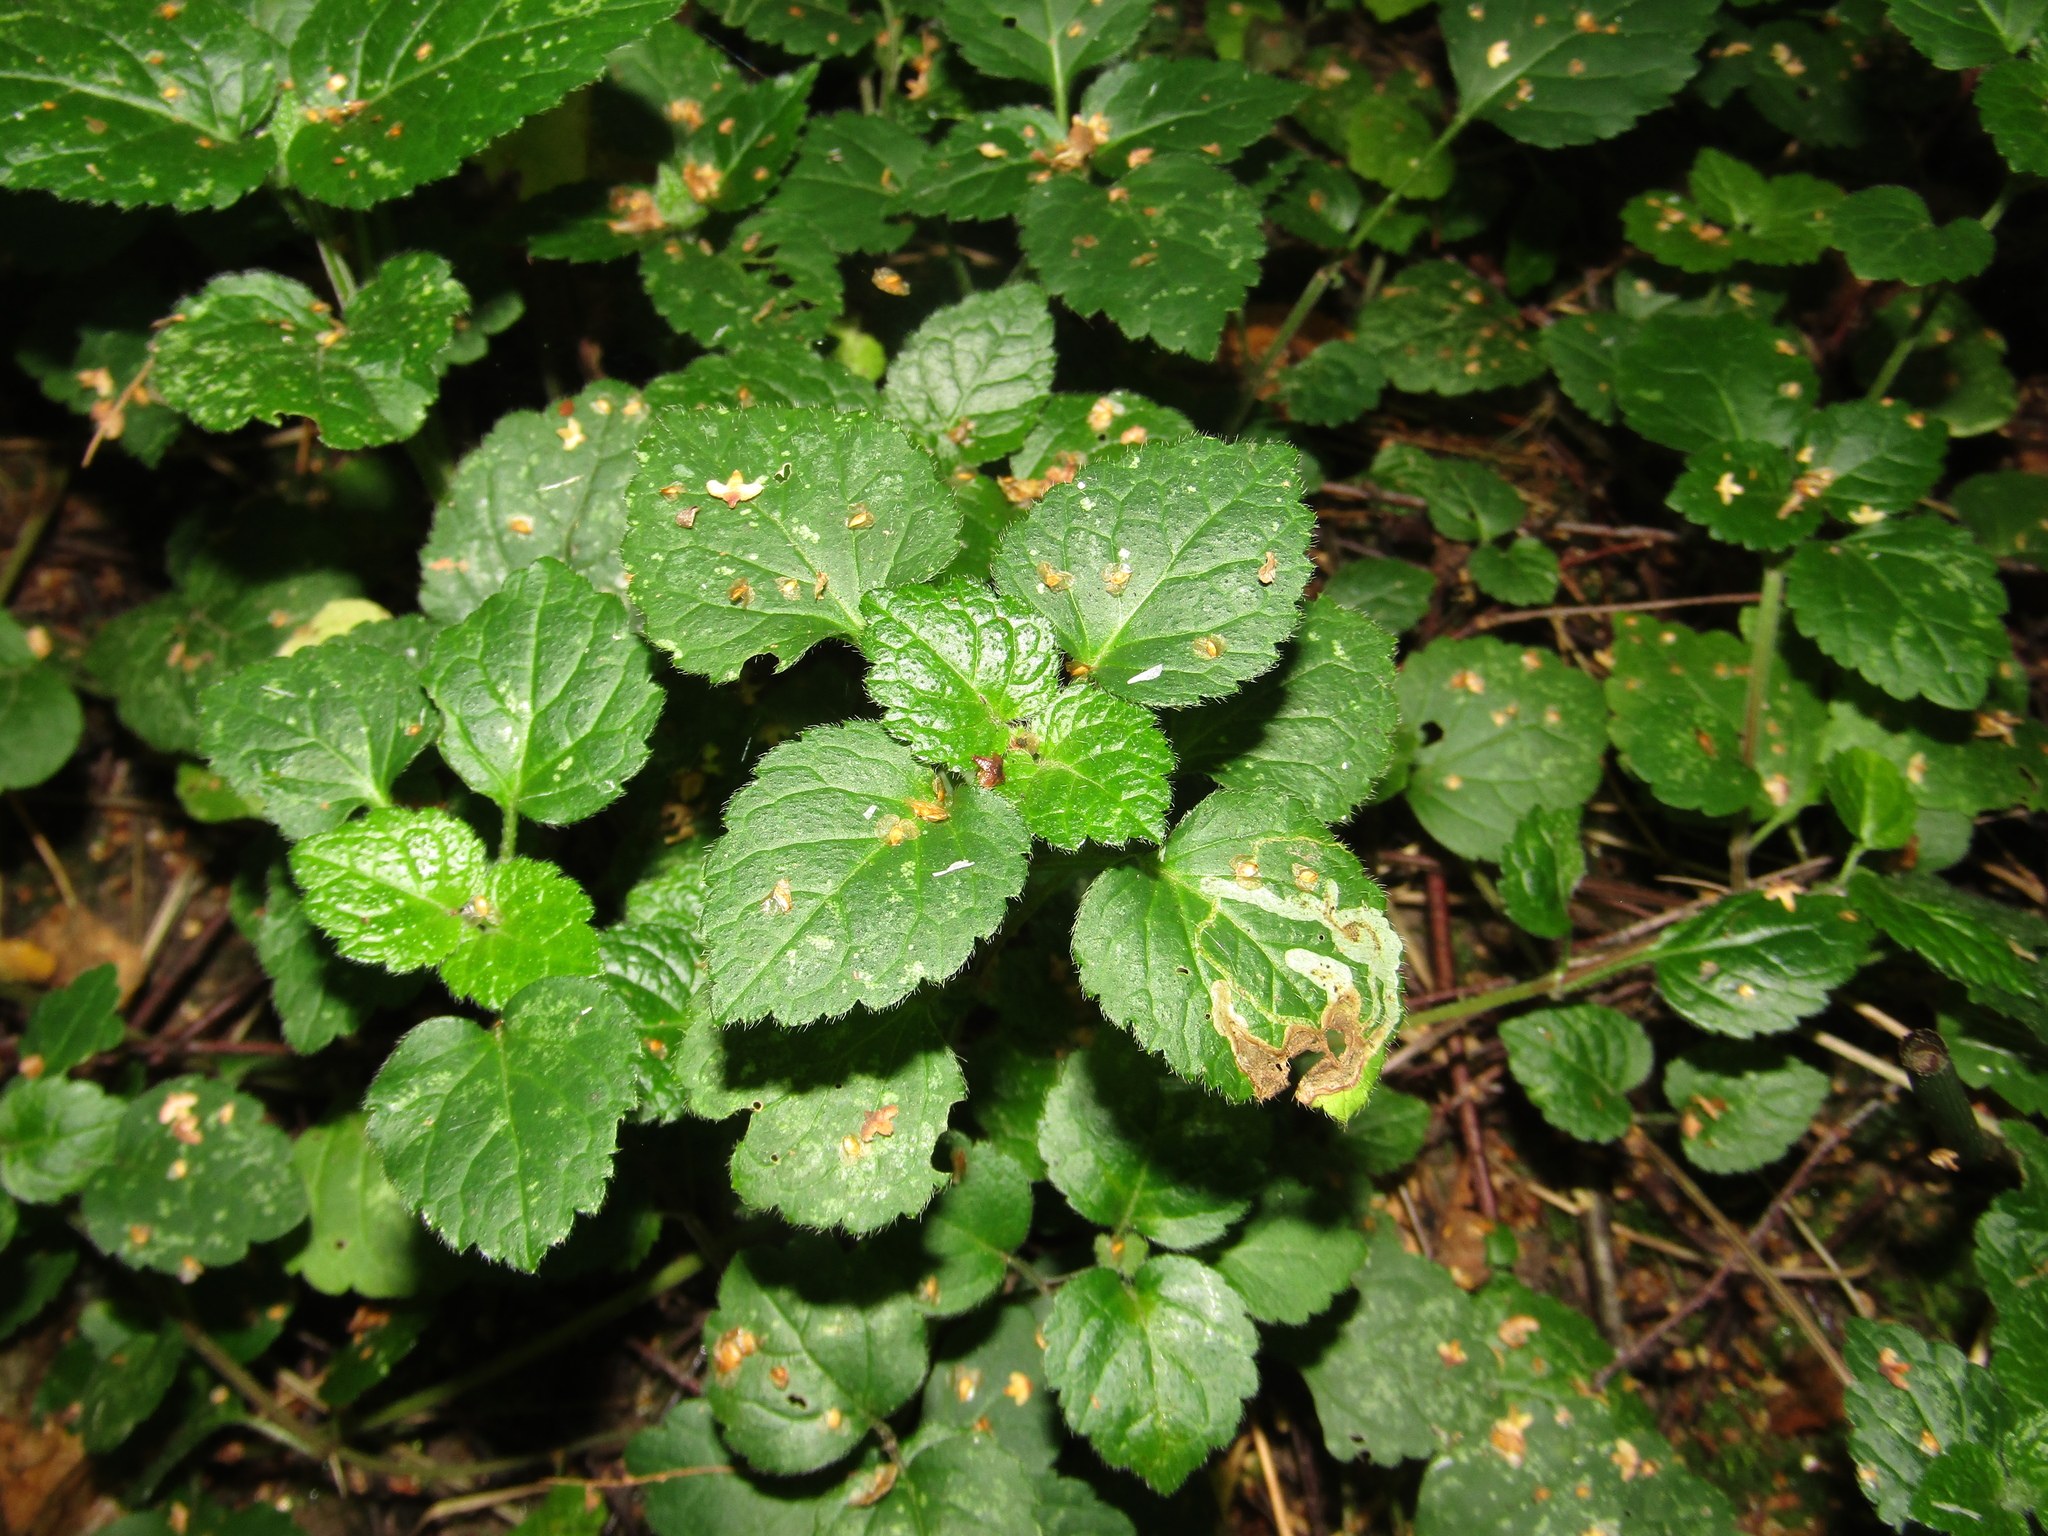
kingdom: Plantae
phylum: Tracheophyta
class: Magnoliopsida
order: Lamiales
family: Lamiaceae
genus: Lamium
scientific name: Lamium galeobdolon
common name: Yellow archangel
